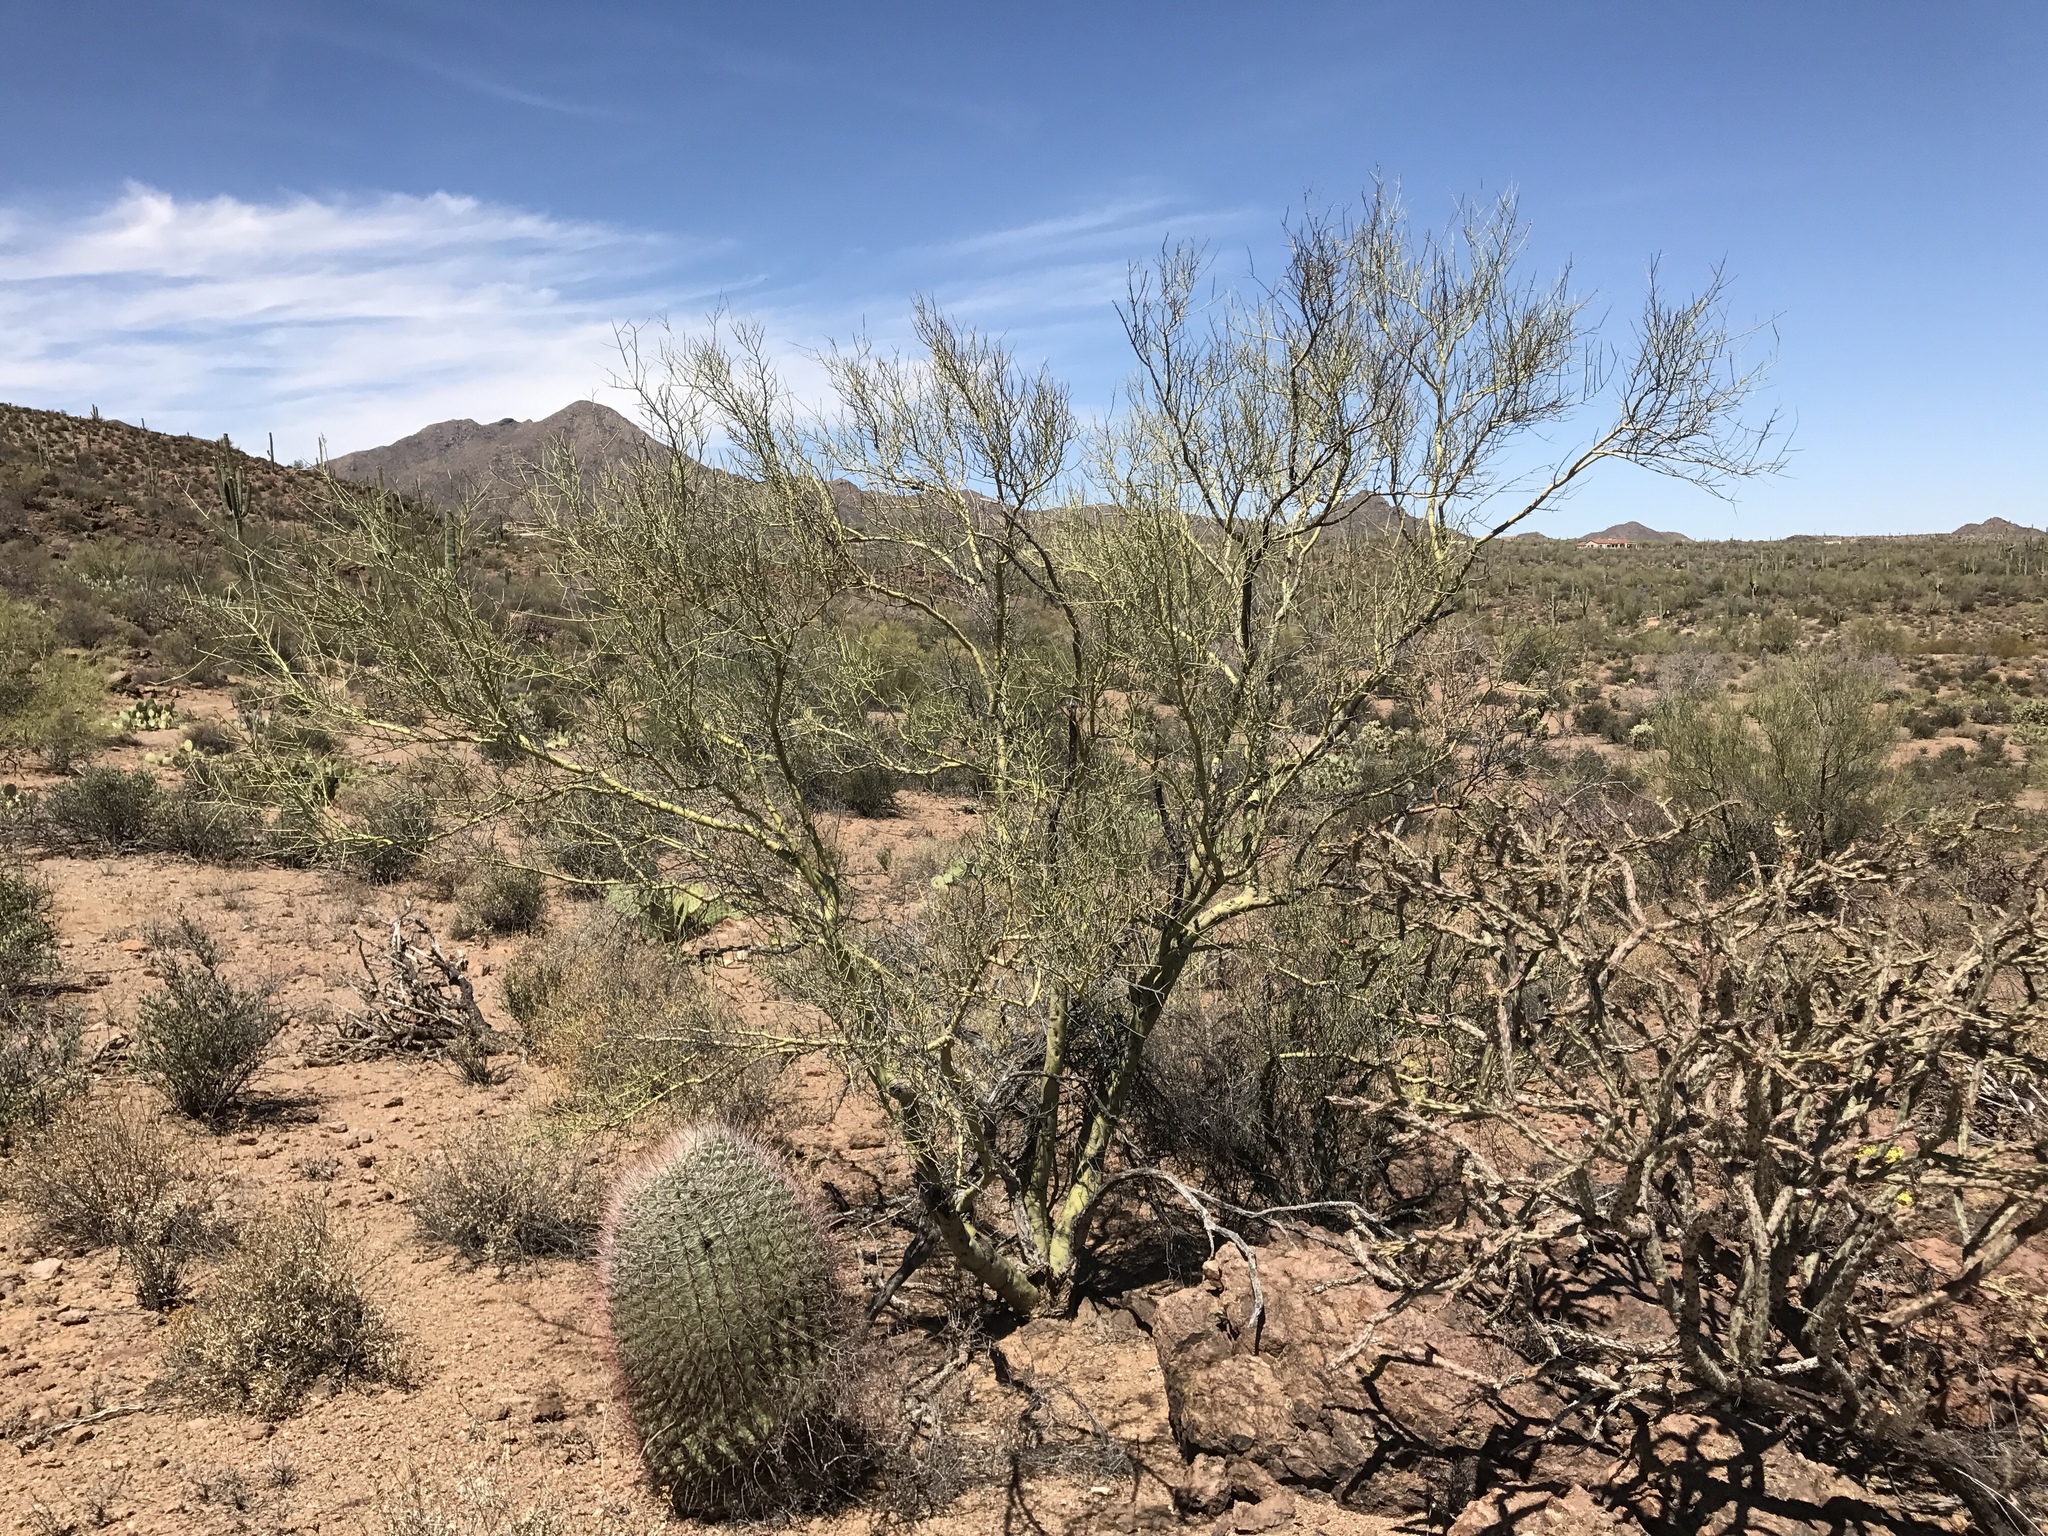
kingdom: Plantae
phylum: Tracheophyta
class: Magnoliopsida
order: Fabales
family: Fabaceae
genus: Parkinsonia
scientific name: Parkinsonia microphylla
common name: Yellow paloverde
